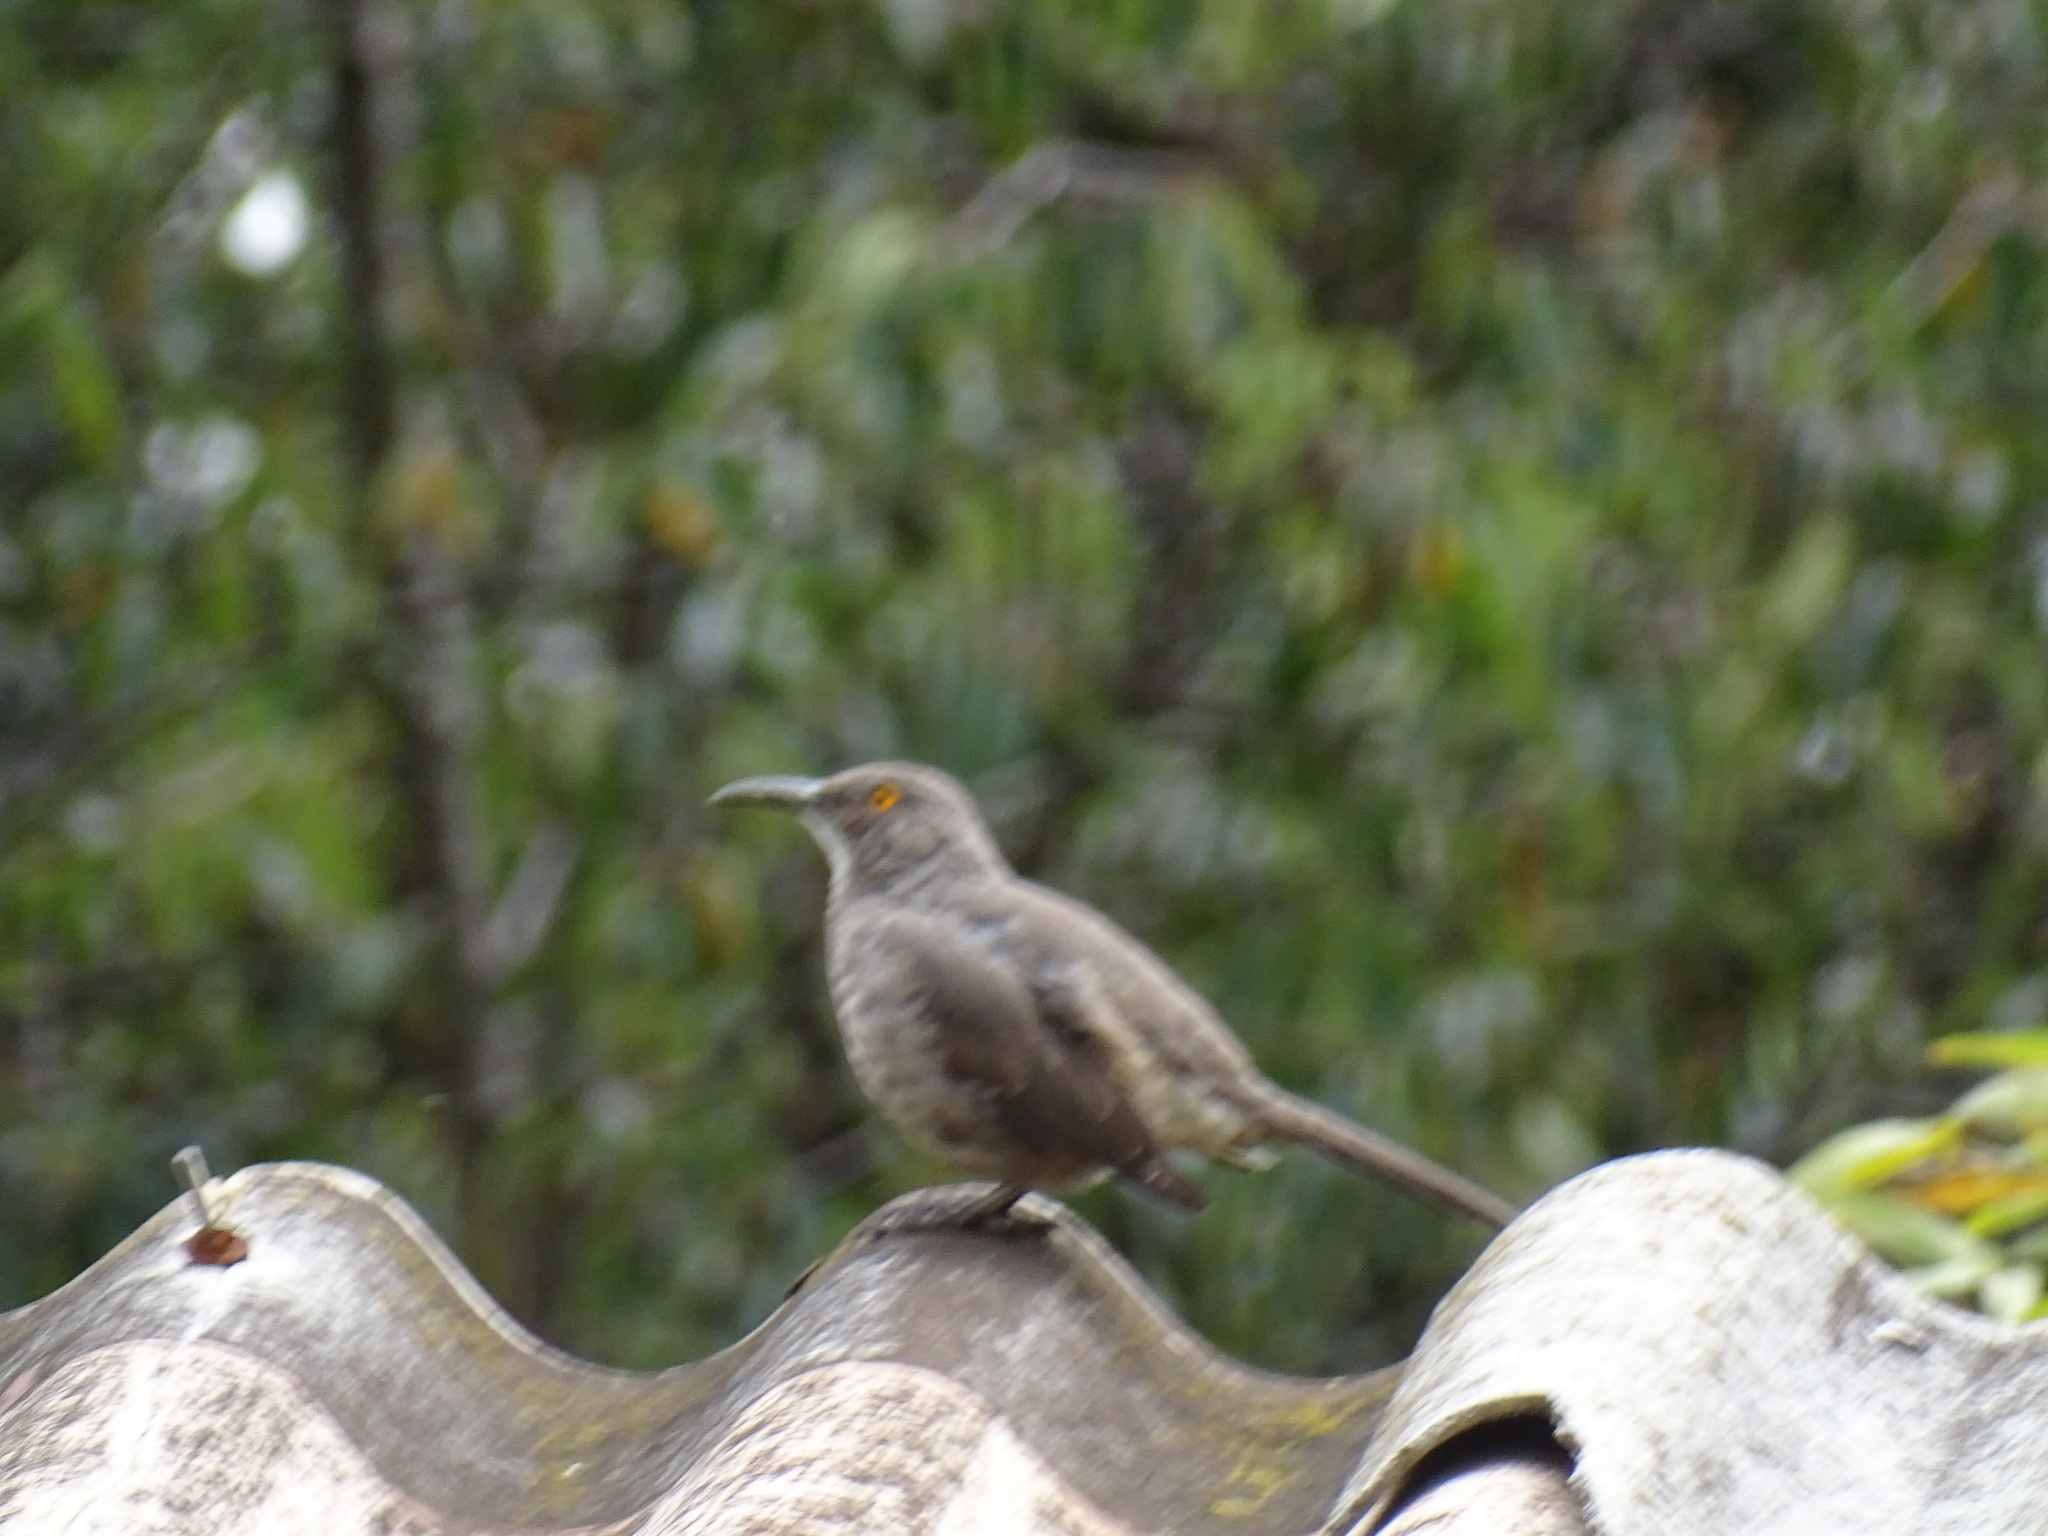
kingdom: Animalia
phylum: Chordata
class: Aves
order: Passeriformes
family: Mimidae
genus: Toxostoma
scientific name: Toxostoma curvirostre
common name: Curve-billed thrasher
